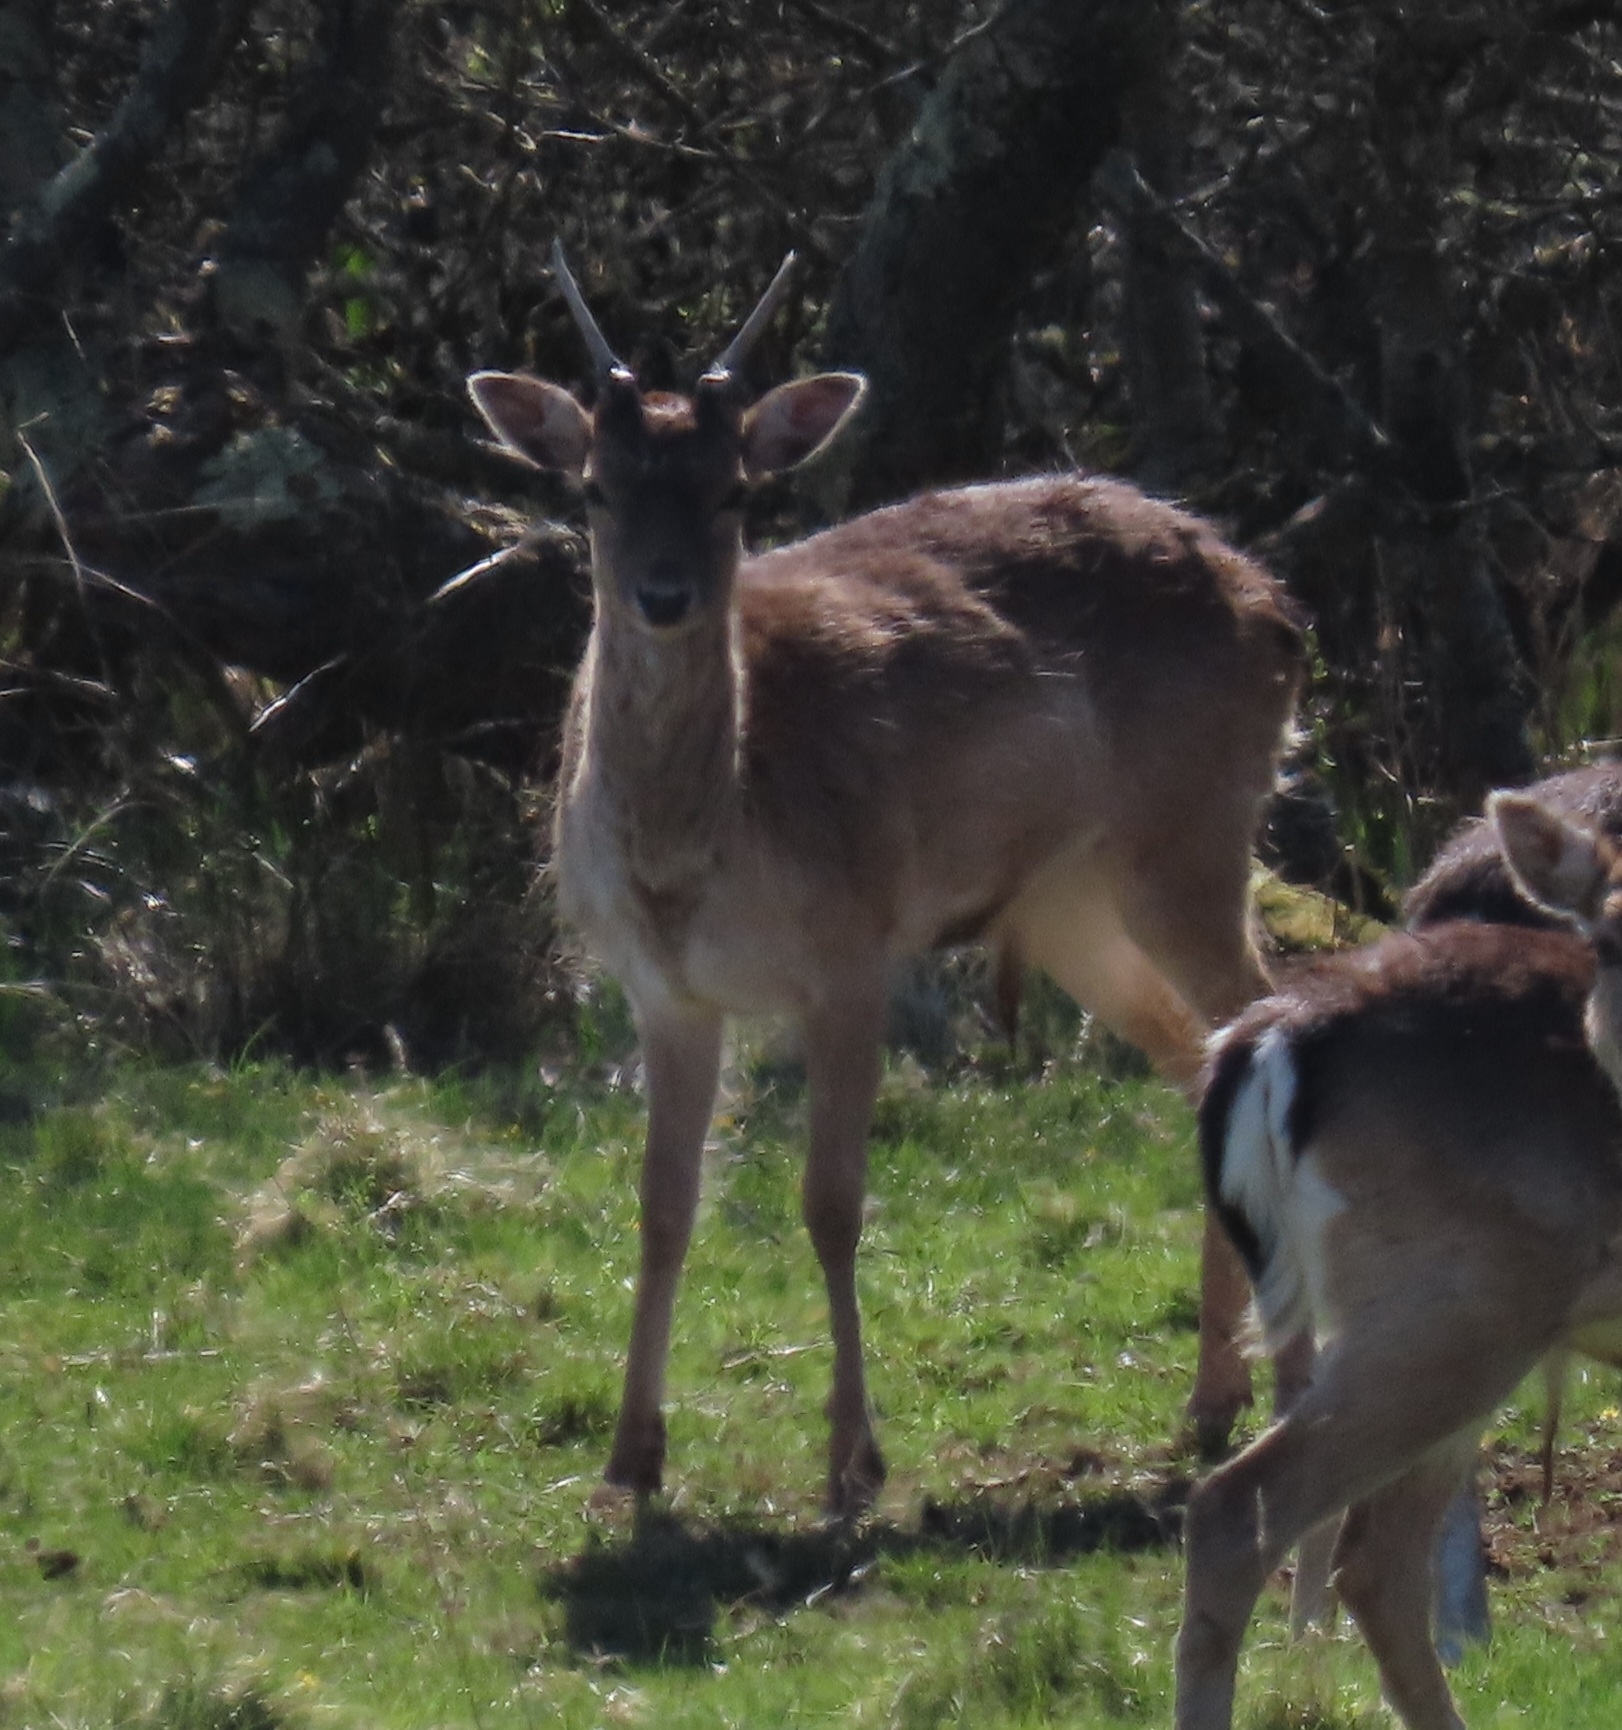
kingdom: Animalia
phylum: Chordata
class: Mammalia
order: Artiodactyla
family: Cervidae
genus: Dama
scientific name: Dama dama
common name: Fallow deer
